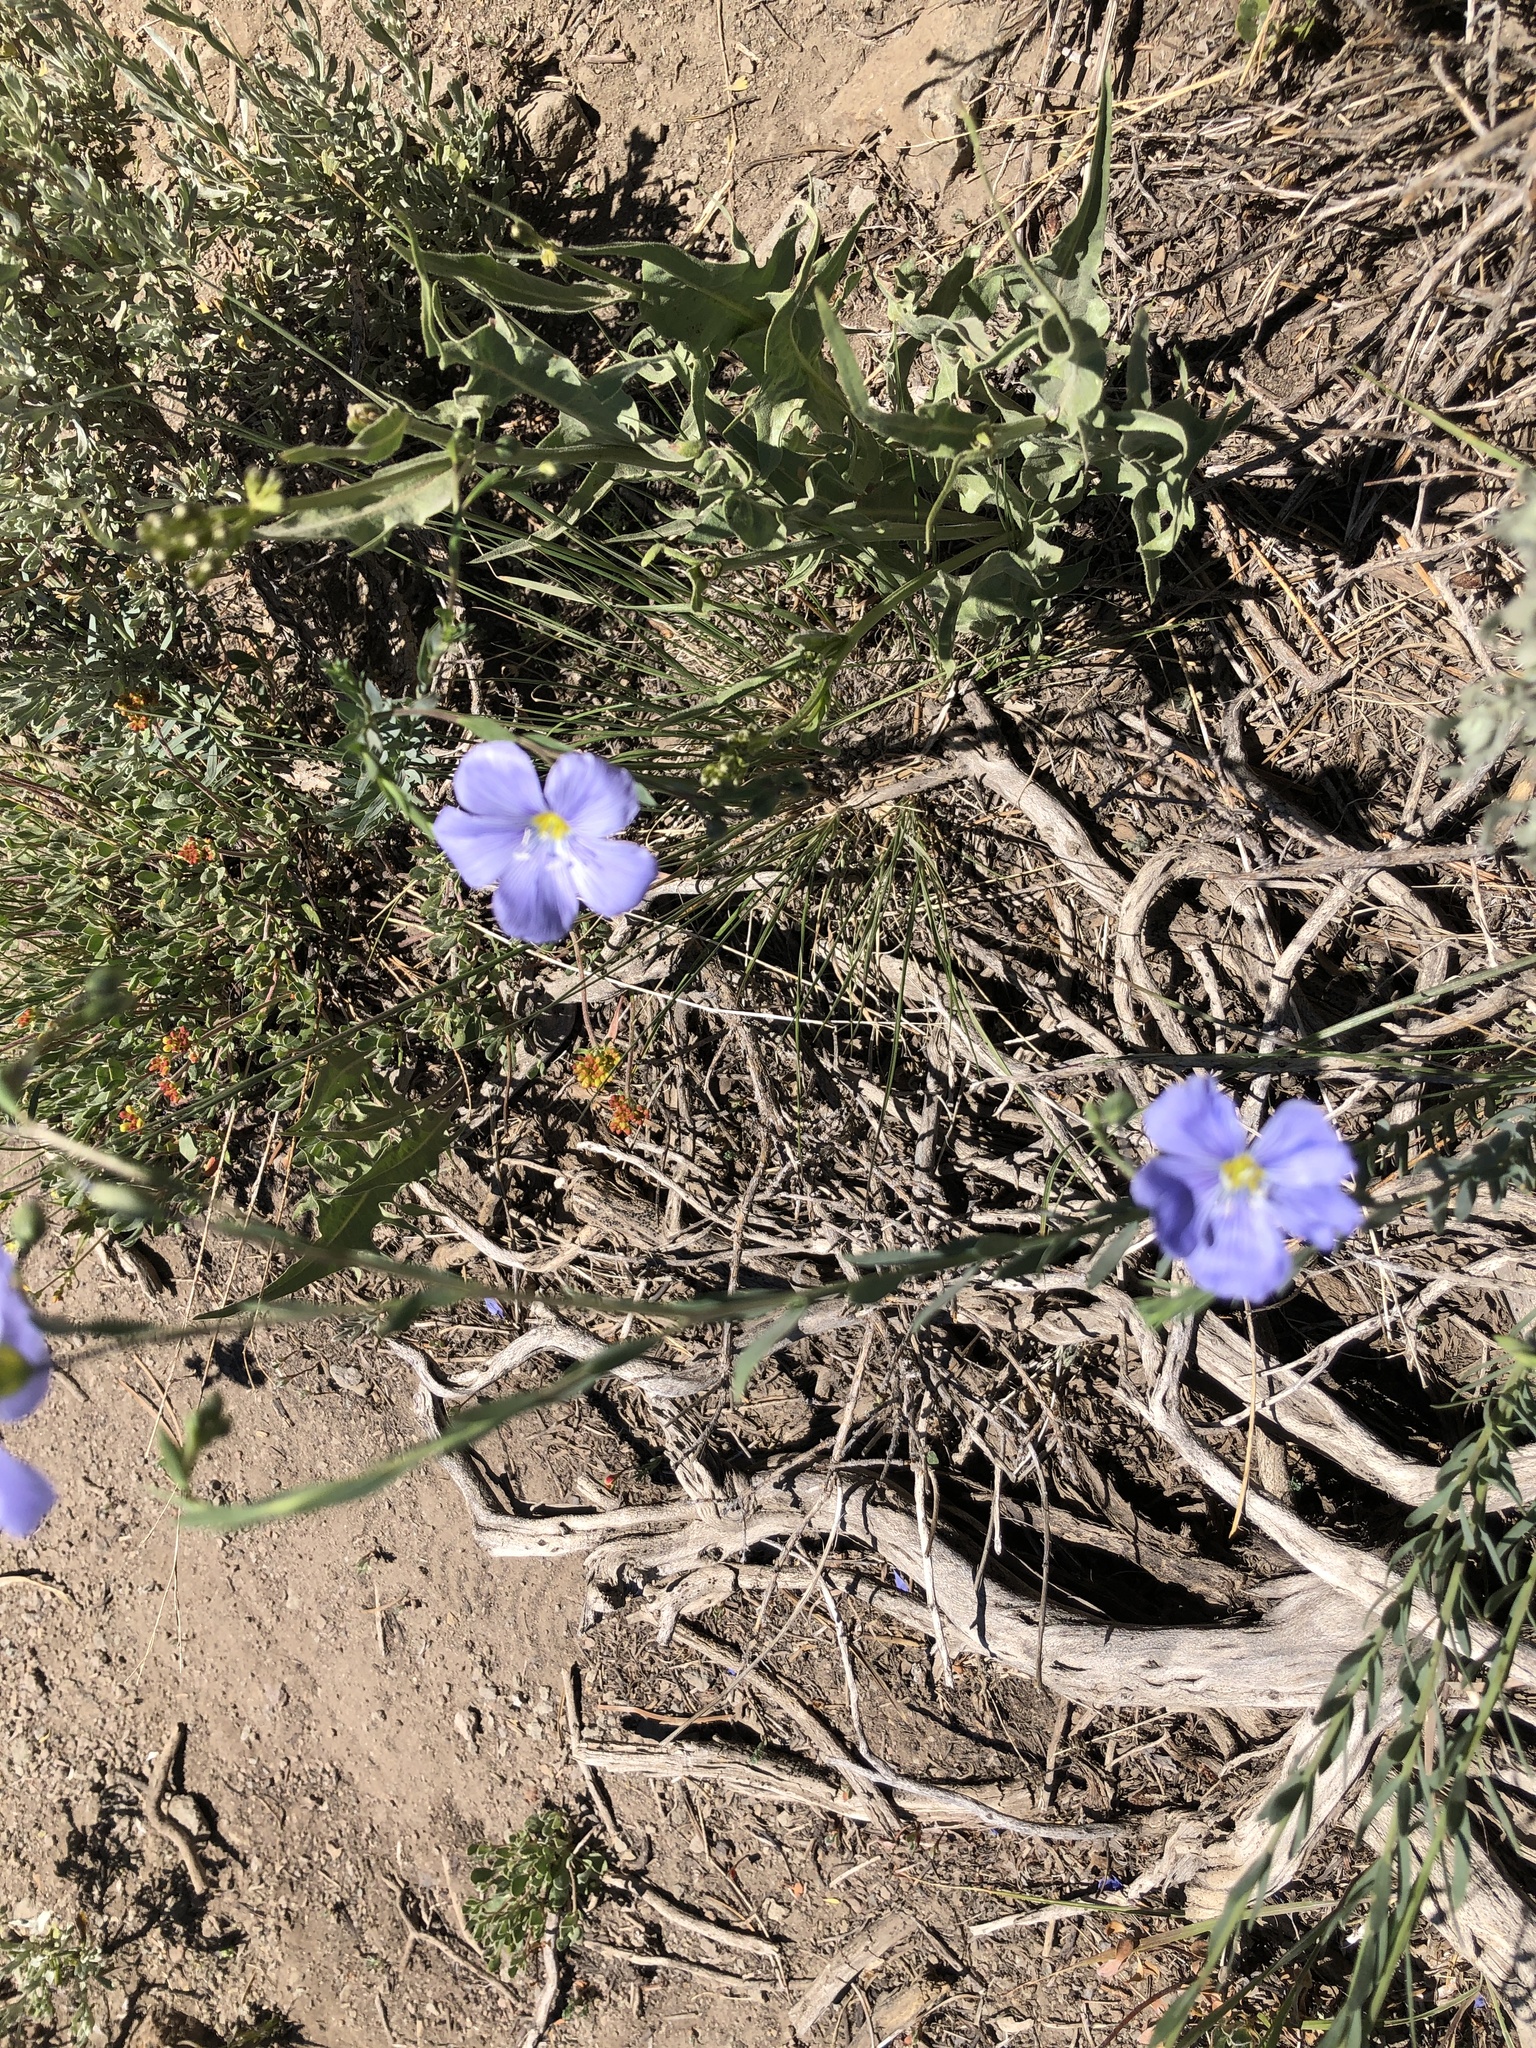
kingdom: Plantae
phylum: Tracheophyta
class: Magnoliopsida
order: Malpighiales
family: Linaceae
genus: Linum
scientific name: Linum lewisii
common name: Prairie flax
